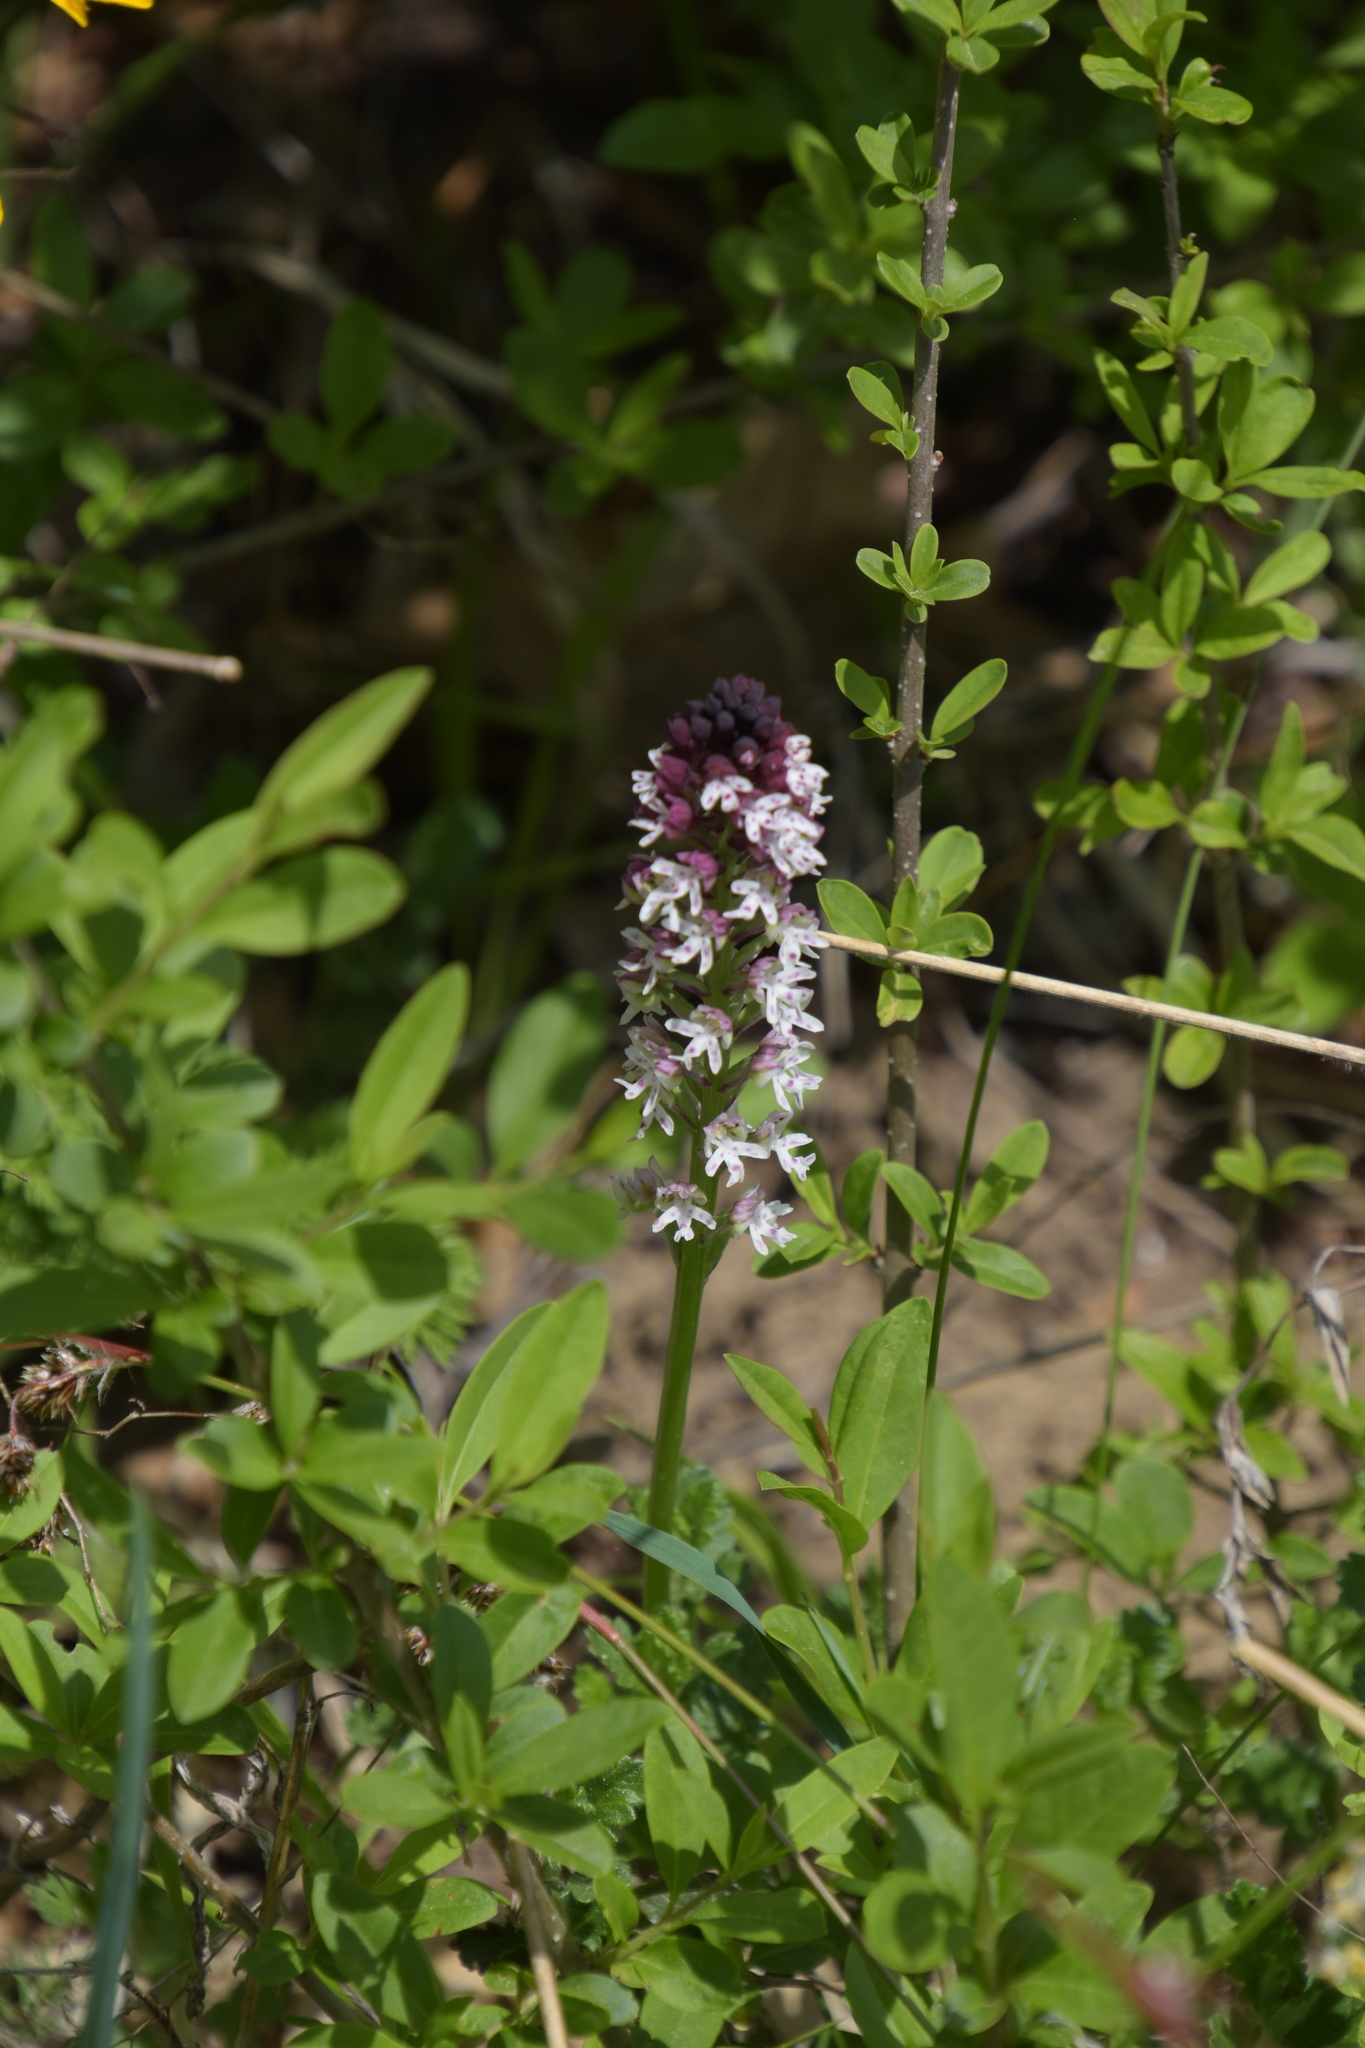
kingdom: Plantae
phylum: Tracheophyta
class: Liliopsida
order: Asparagales
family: Orchidaceae
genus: Neotinea
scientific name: Neotinea ustulata
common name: Burnt orchid
